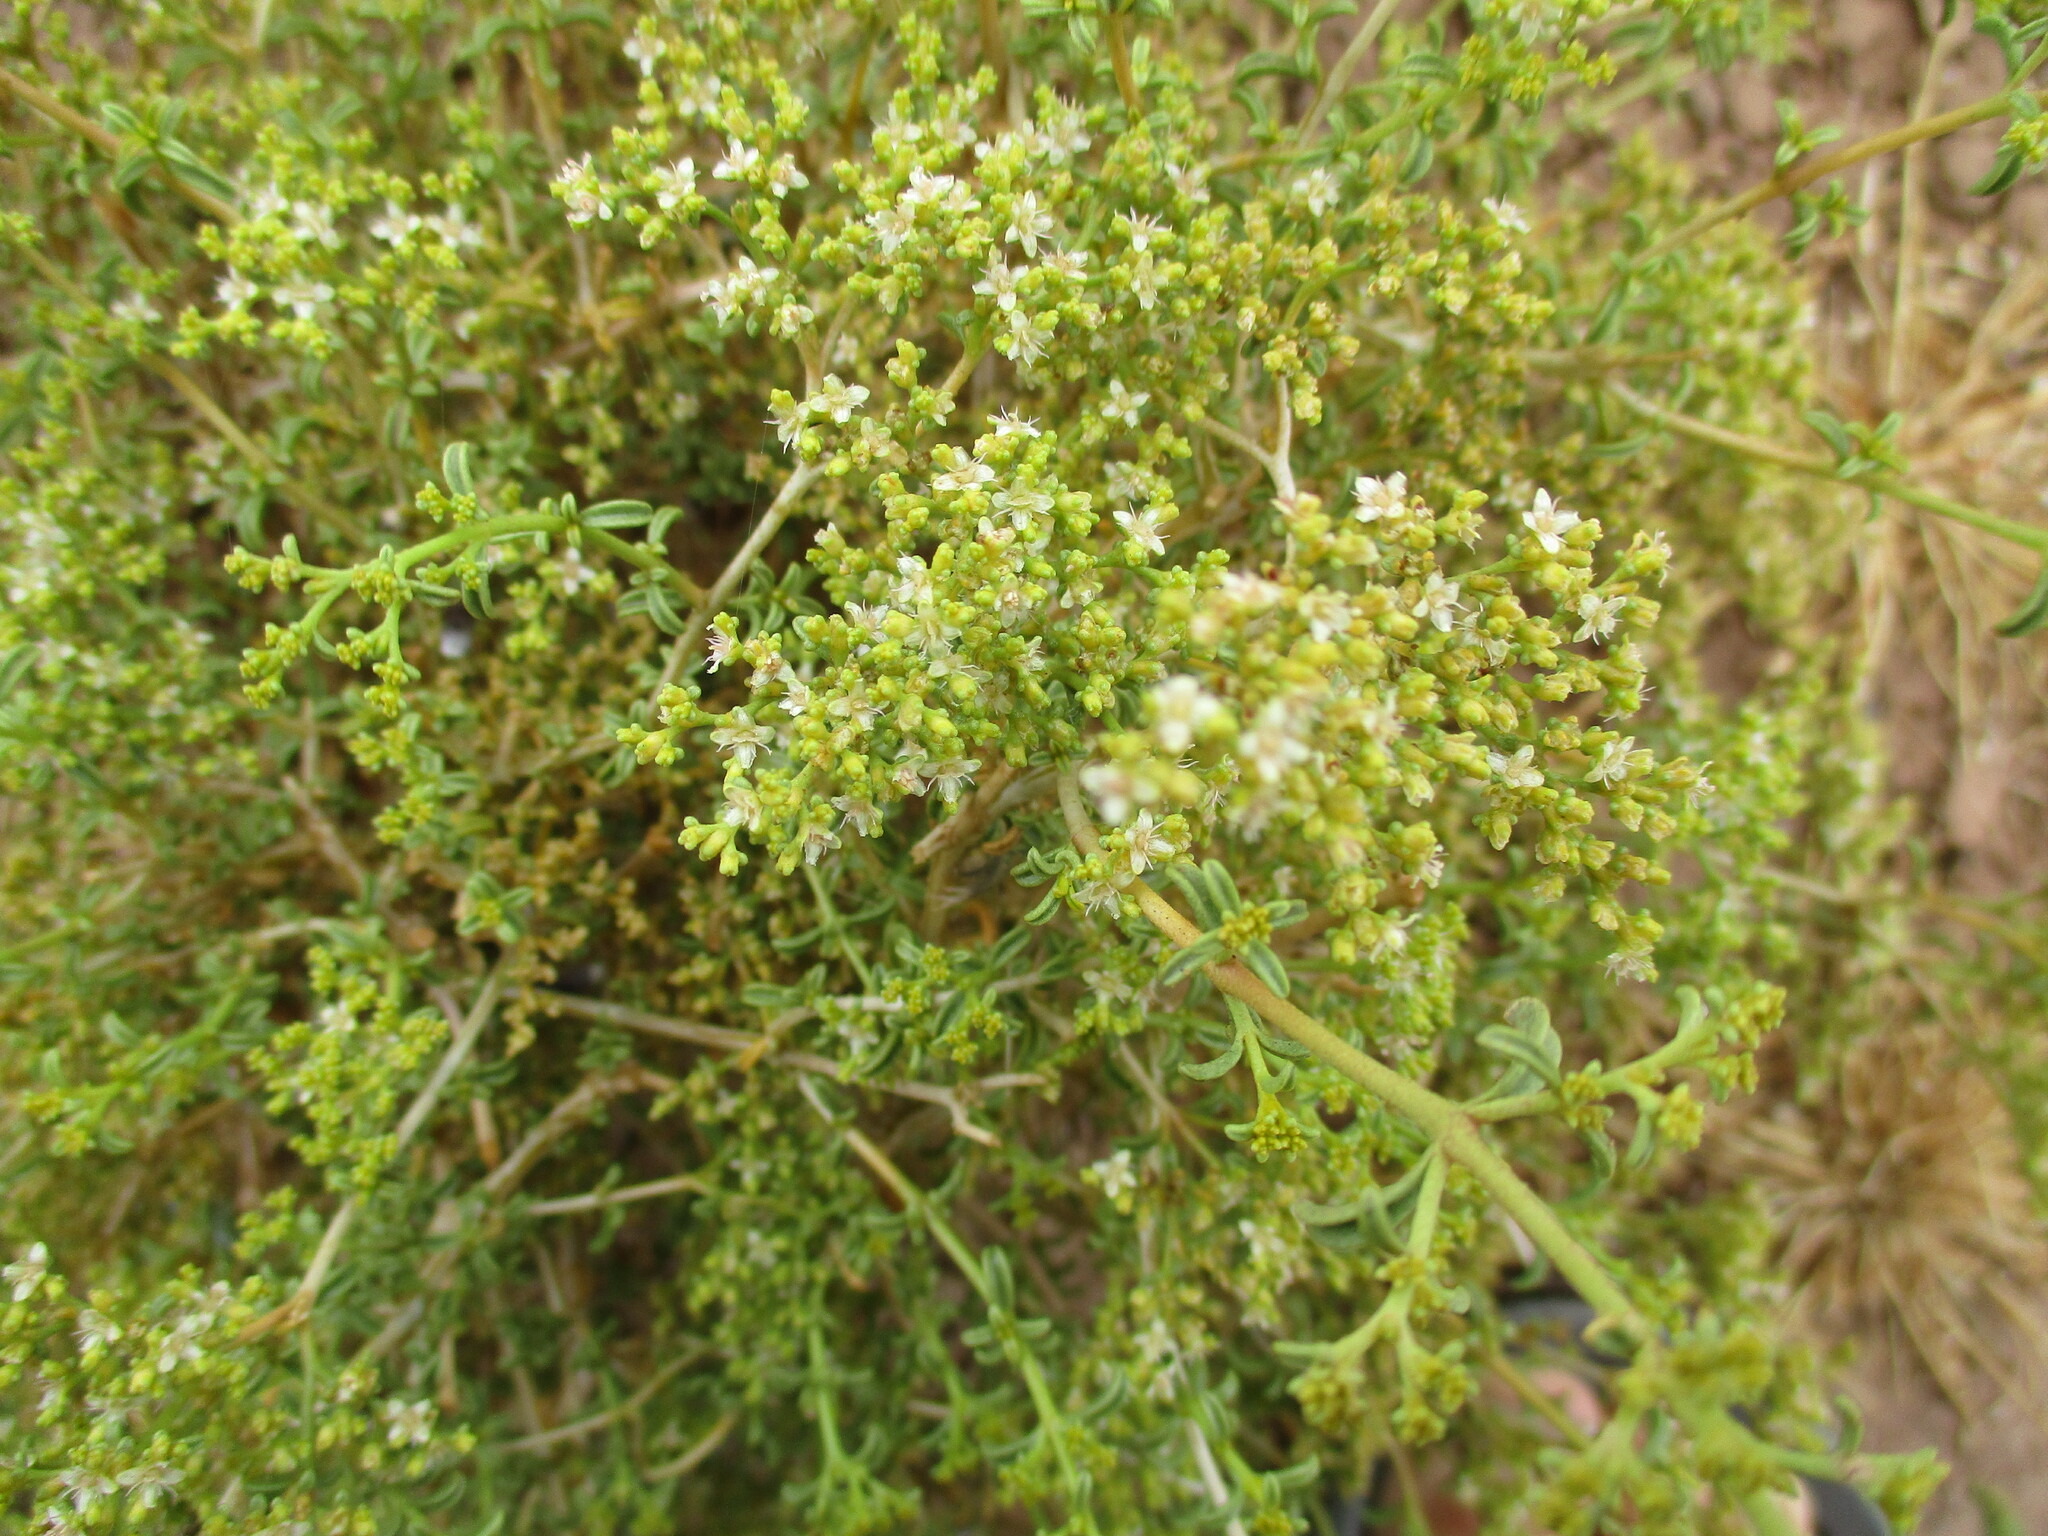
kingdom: Plantae
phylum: Tracheophyta
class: Magnoliopsida
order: Caryophyllales
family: Aizoaceae
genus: Aizoon
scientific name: Aizoon africanum
